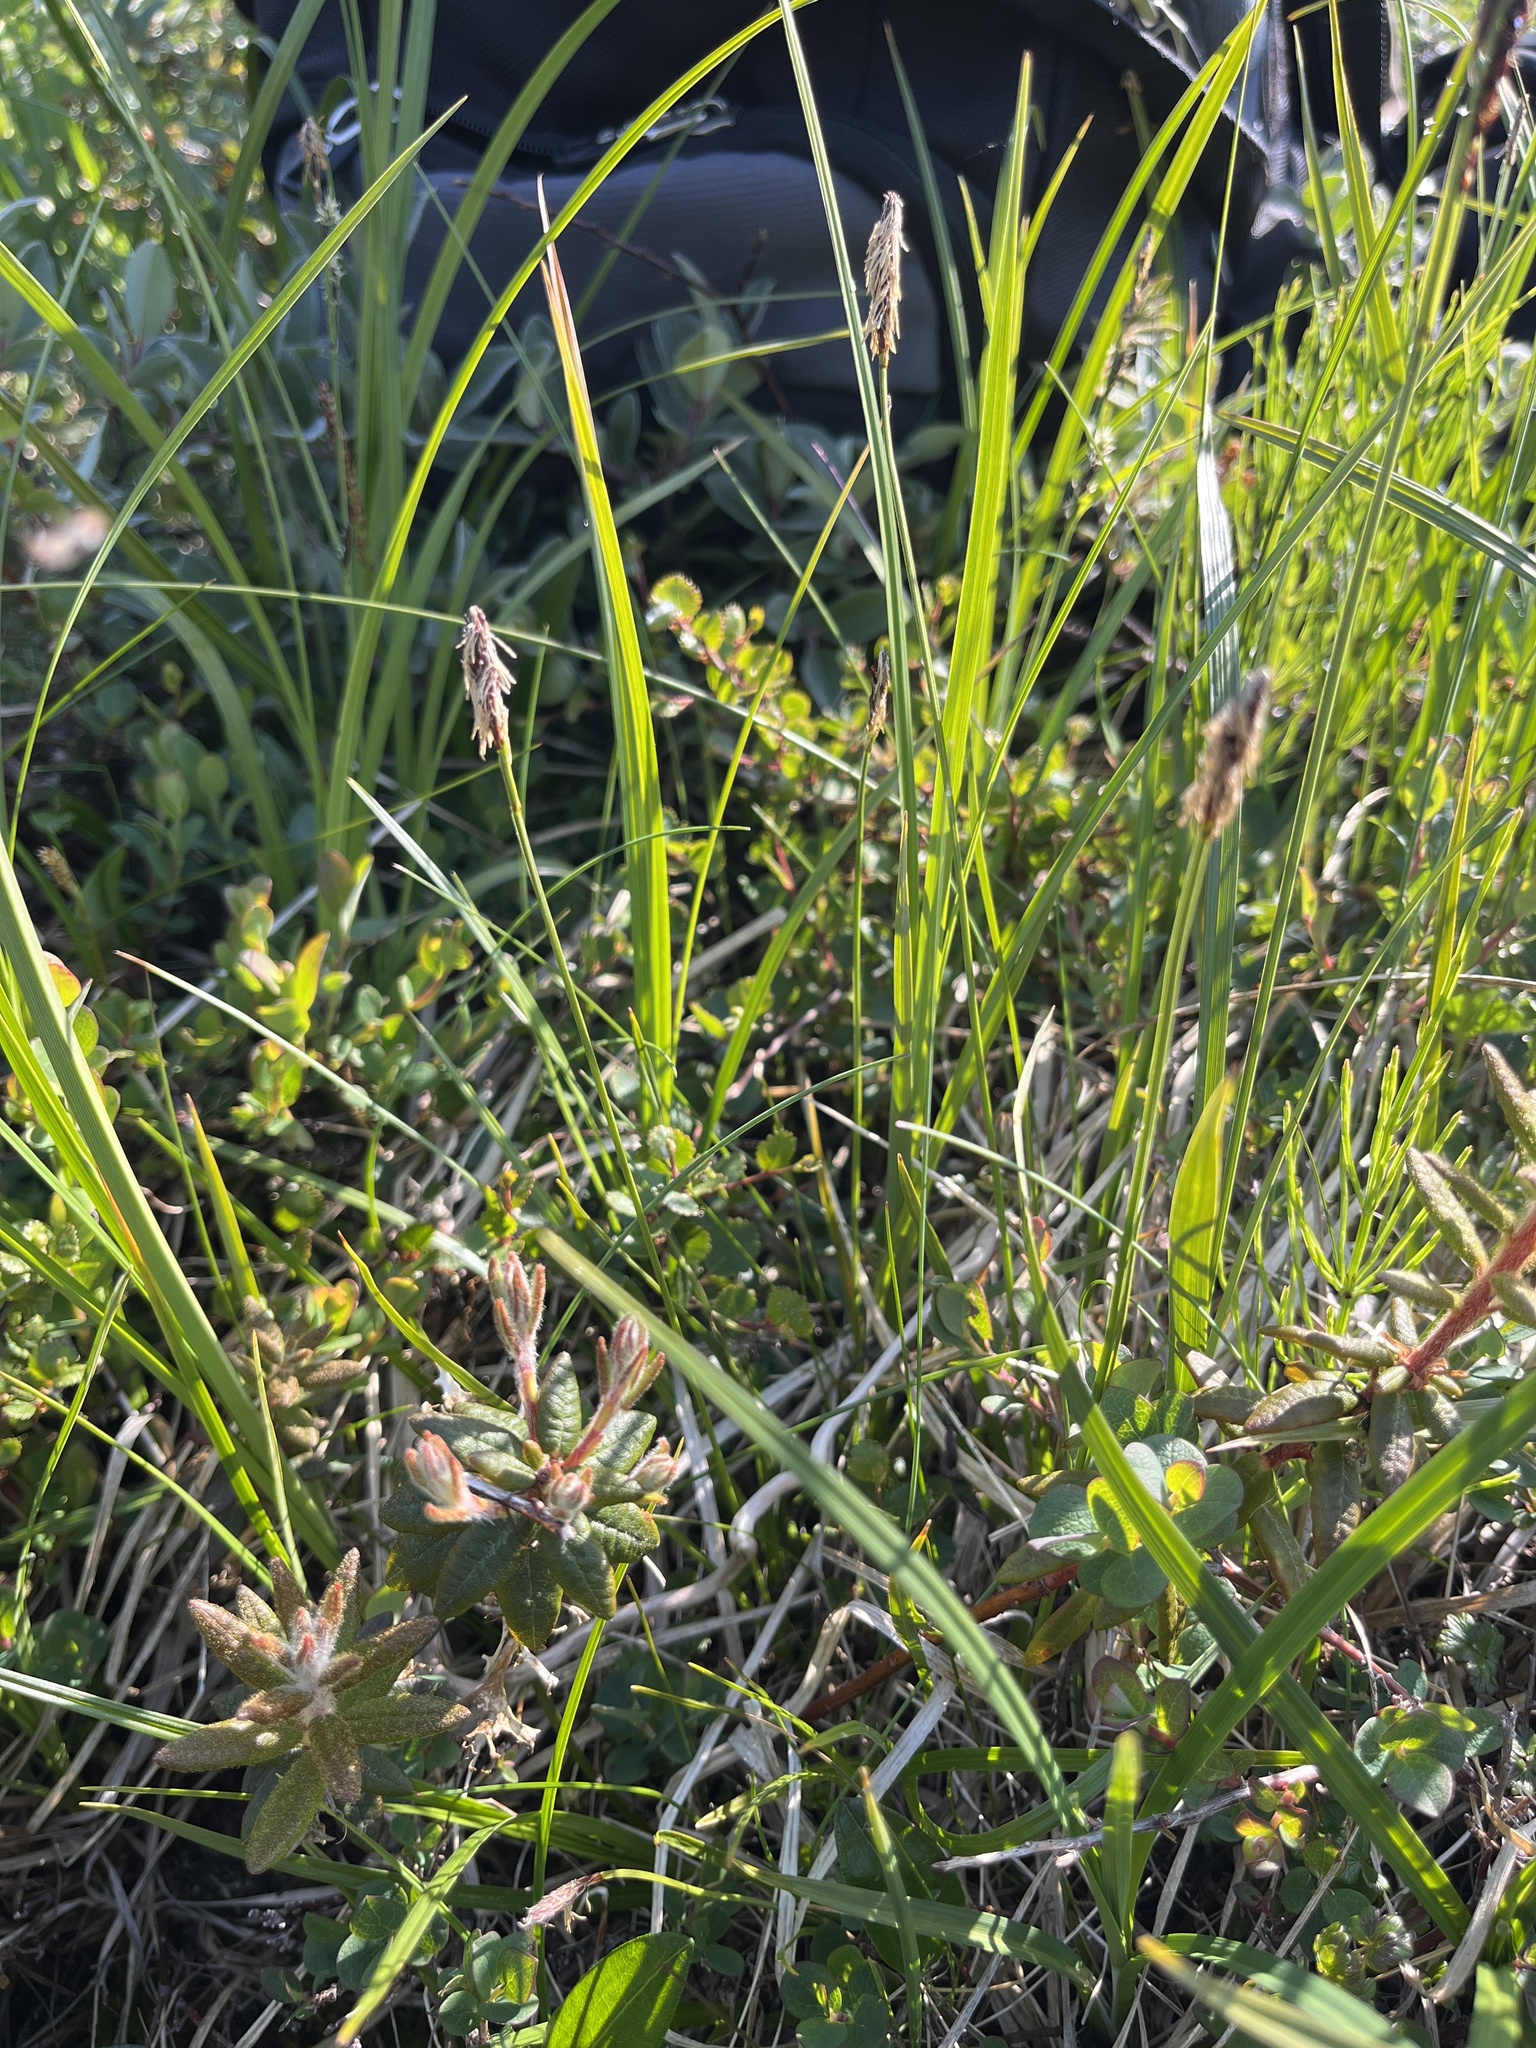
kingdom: Plantae
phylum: Tracheophyta
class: Liliopsida
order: Poales
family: Cyperaceae
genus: Carex
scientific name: Carex scirpoidea
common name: Canada single-spike sedge
